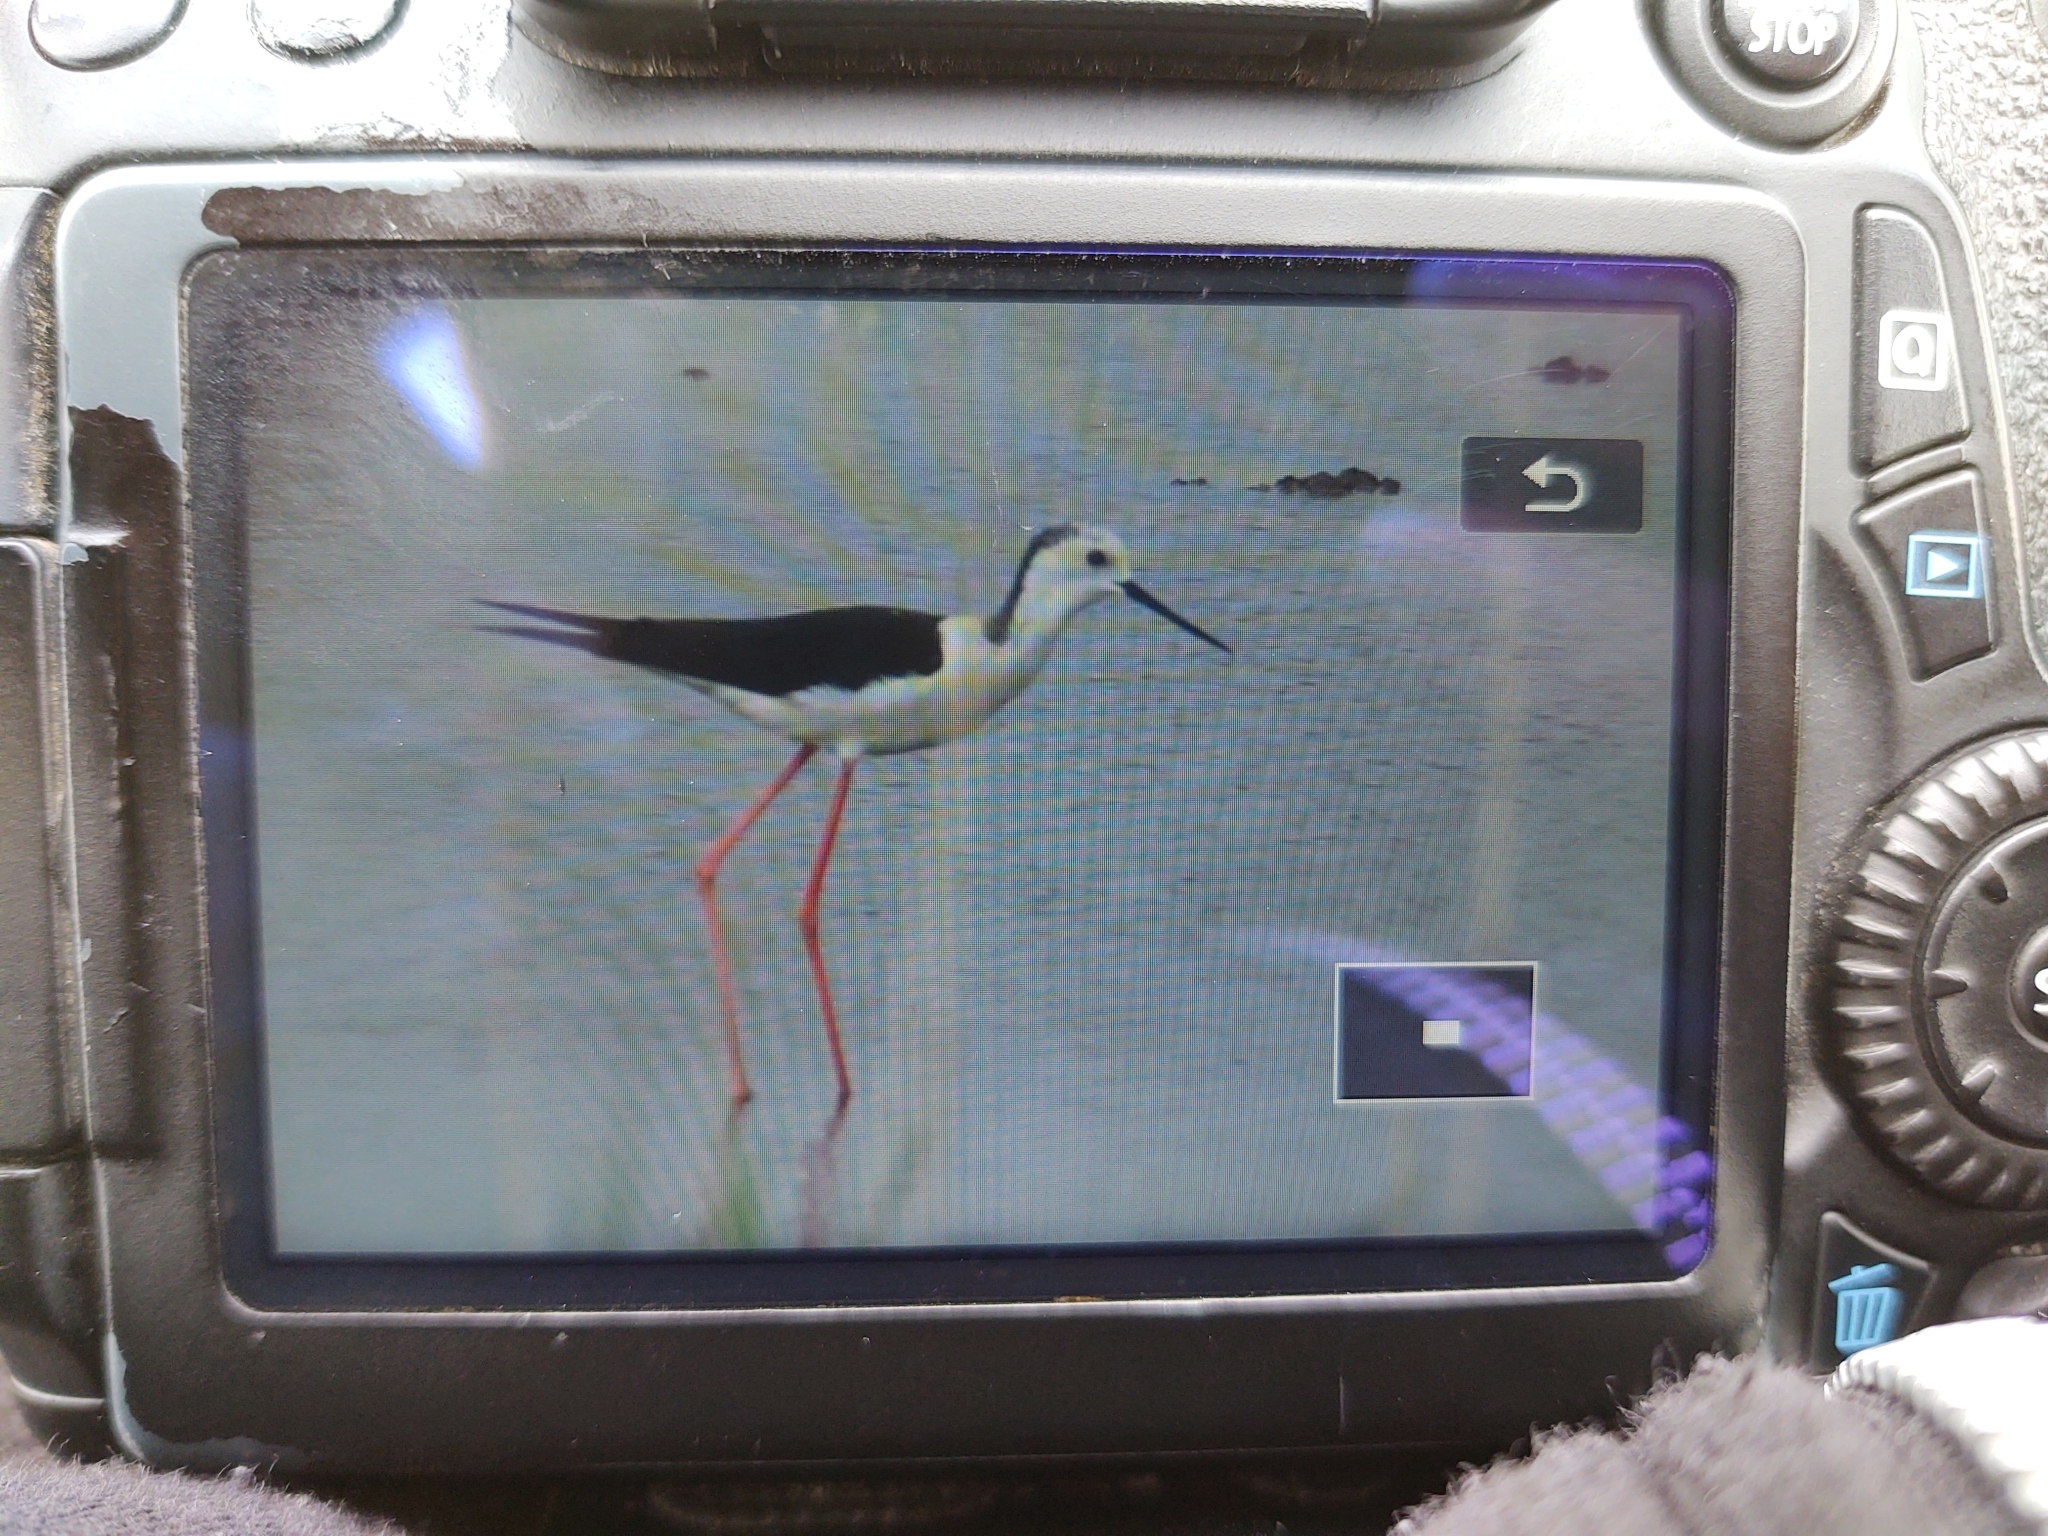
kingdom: Animalia
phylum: Chordata
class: Aves
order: Charadriiformes
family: Recurvirostridae
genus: Himantopus
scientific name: Himantopus himantopus
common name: Black-winged stilt
